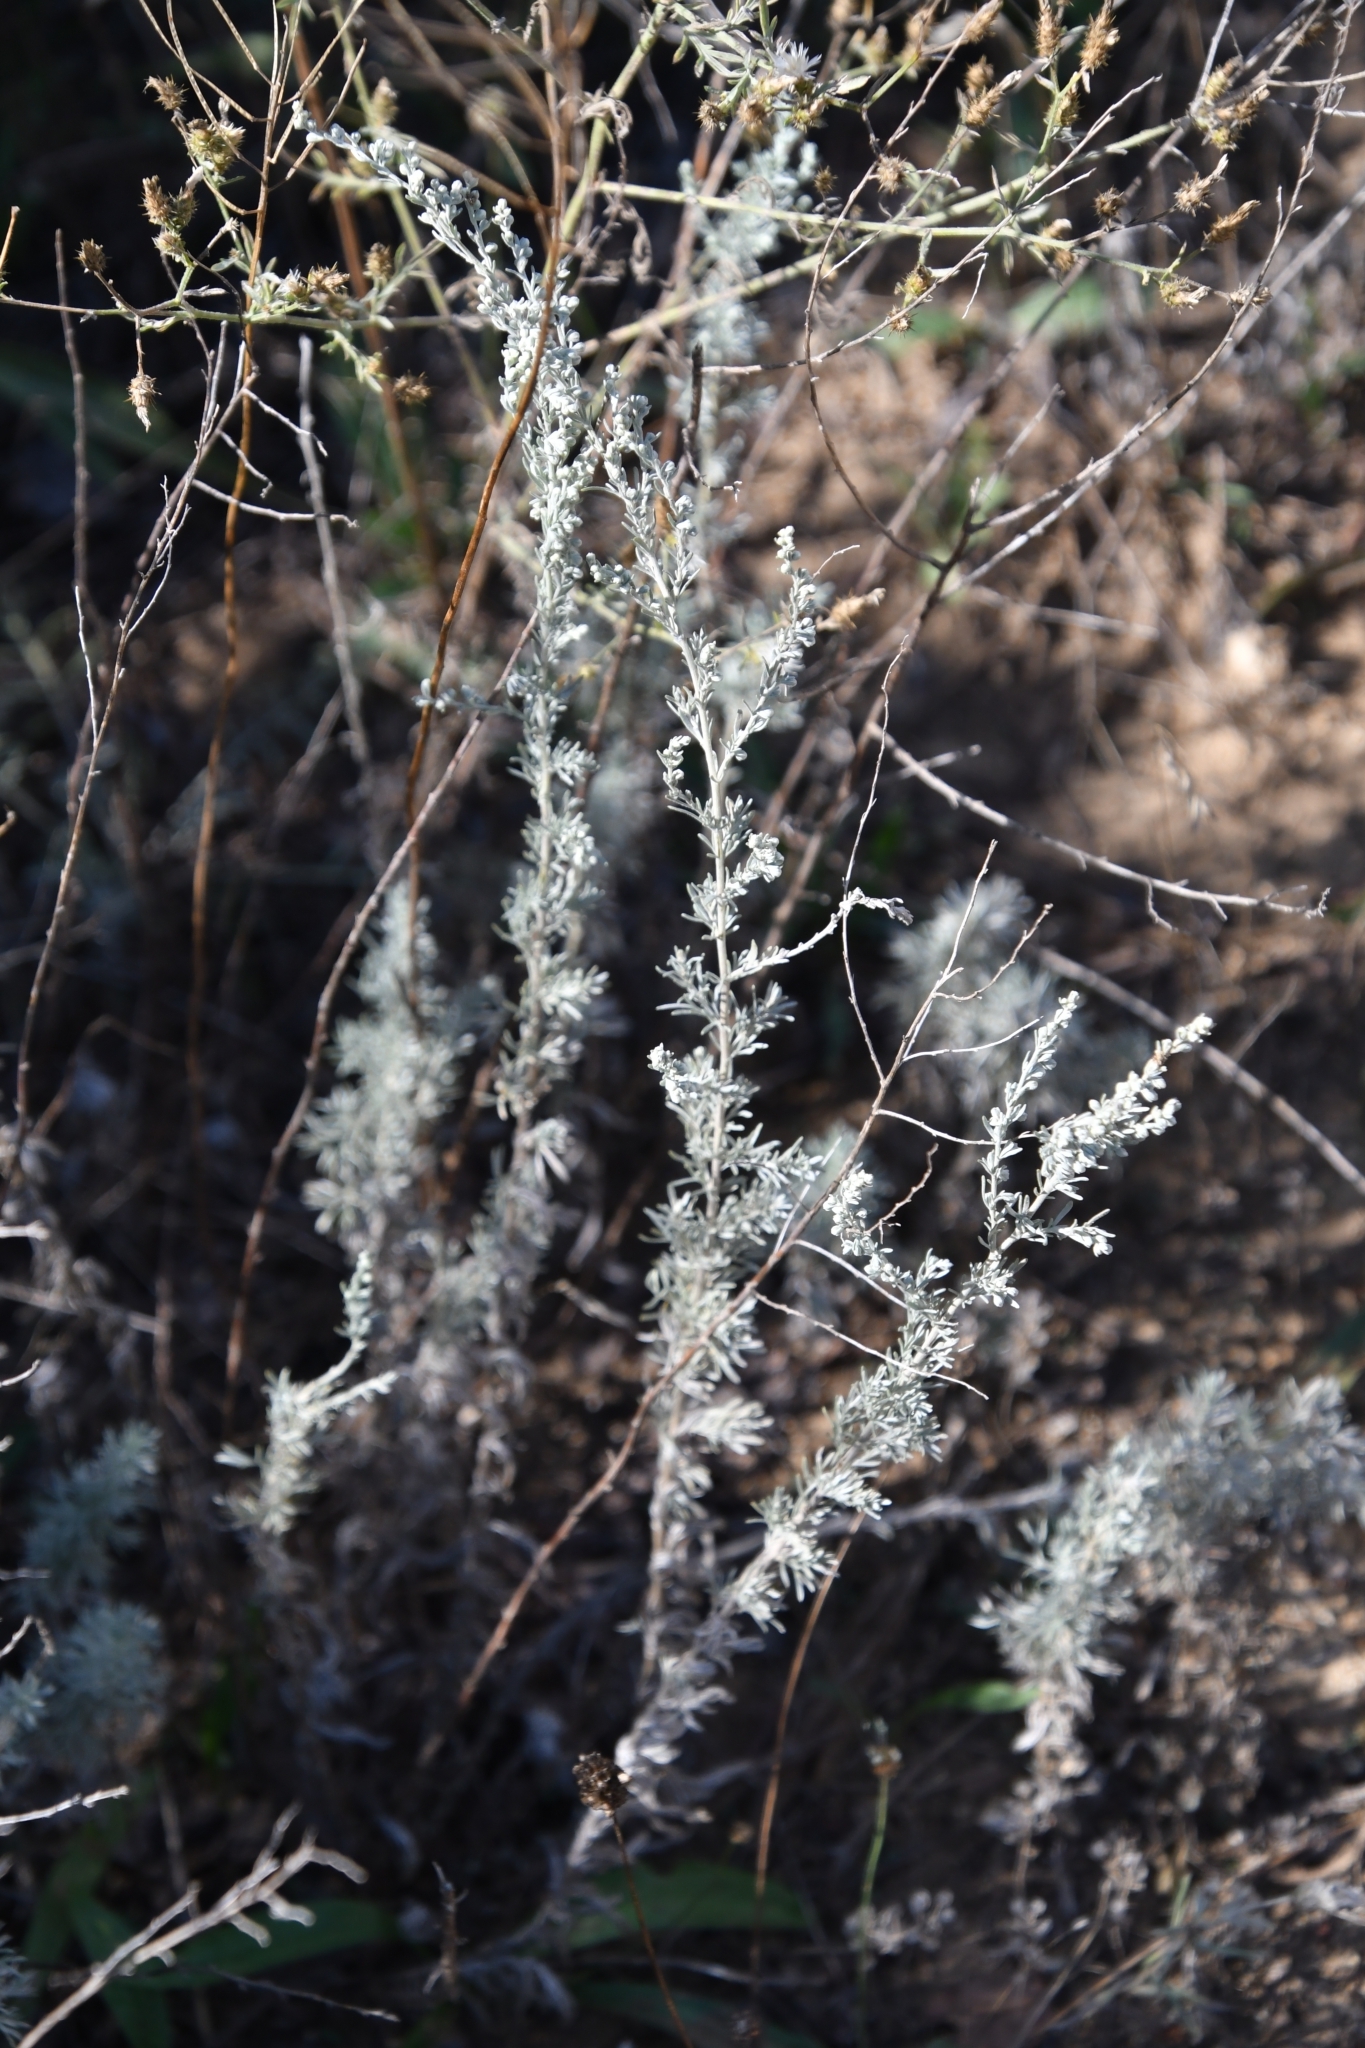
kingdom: Plantae
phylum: Tracheophyta
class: Magnoliopsida
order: Asterales
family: Asteraceae
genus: Artemisia
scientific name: Artemisia austriaca
